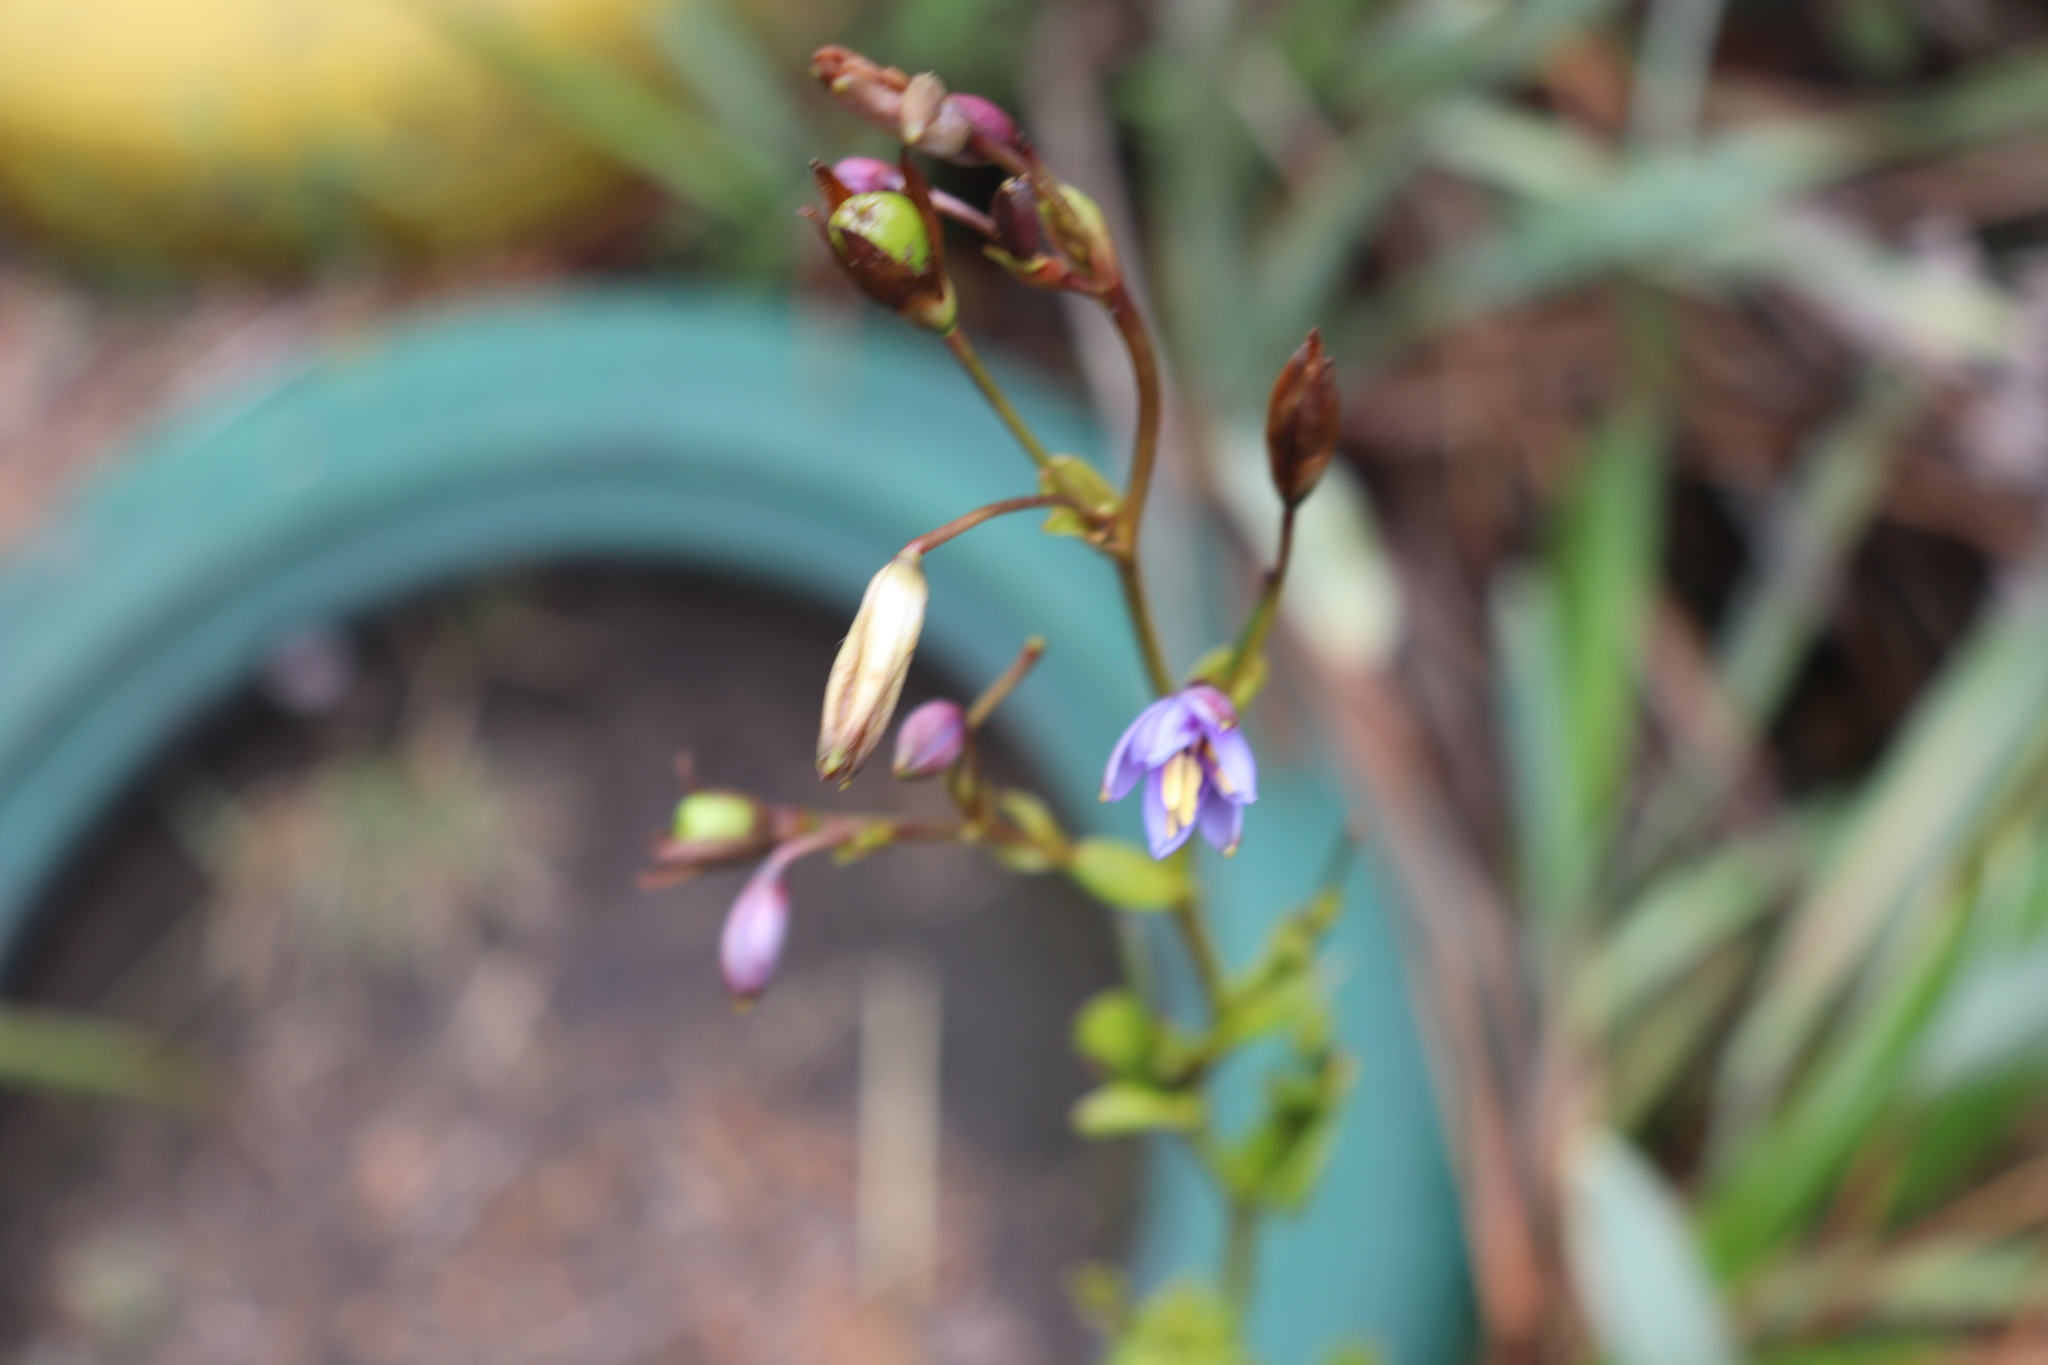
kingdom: Plantae
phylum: Tracheophyta
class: Liliopsida
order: Asparagales
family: Asphodelaceae
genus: Excremis
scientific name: Excremis coarctata
